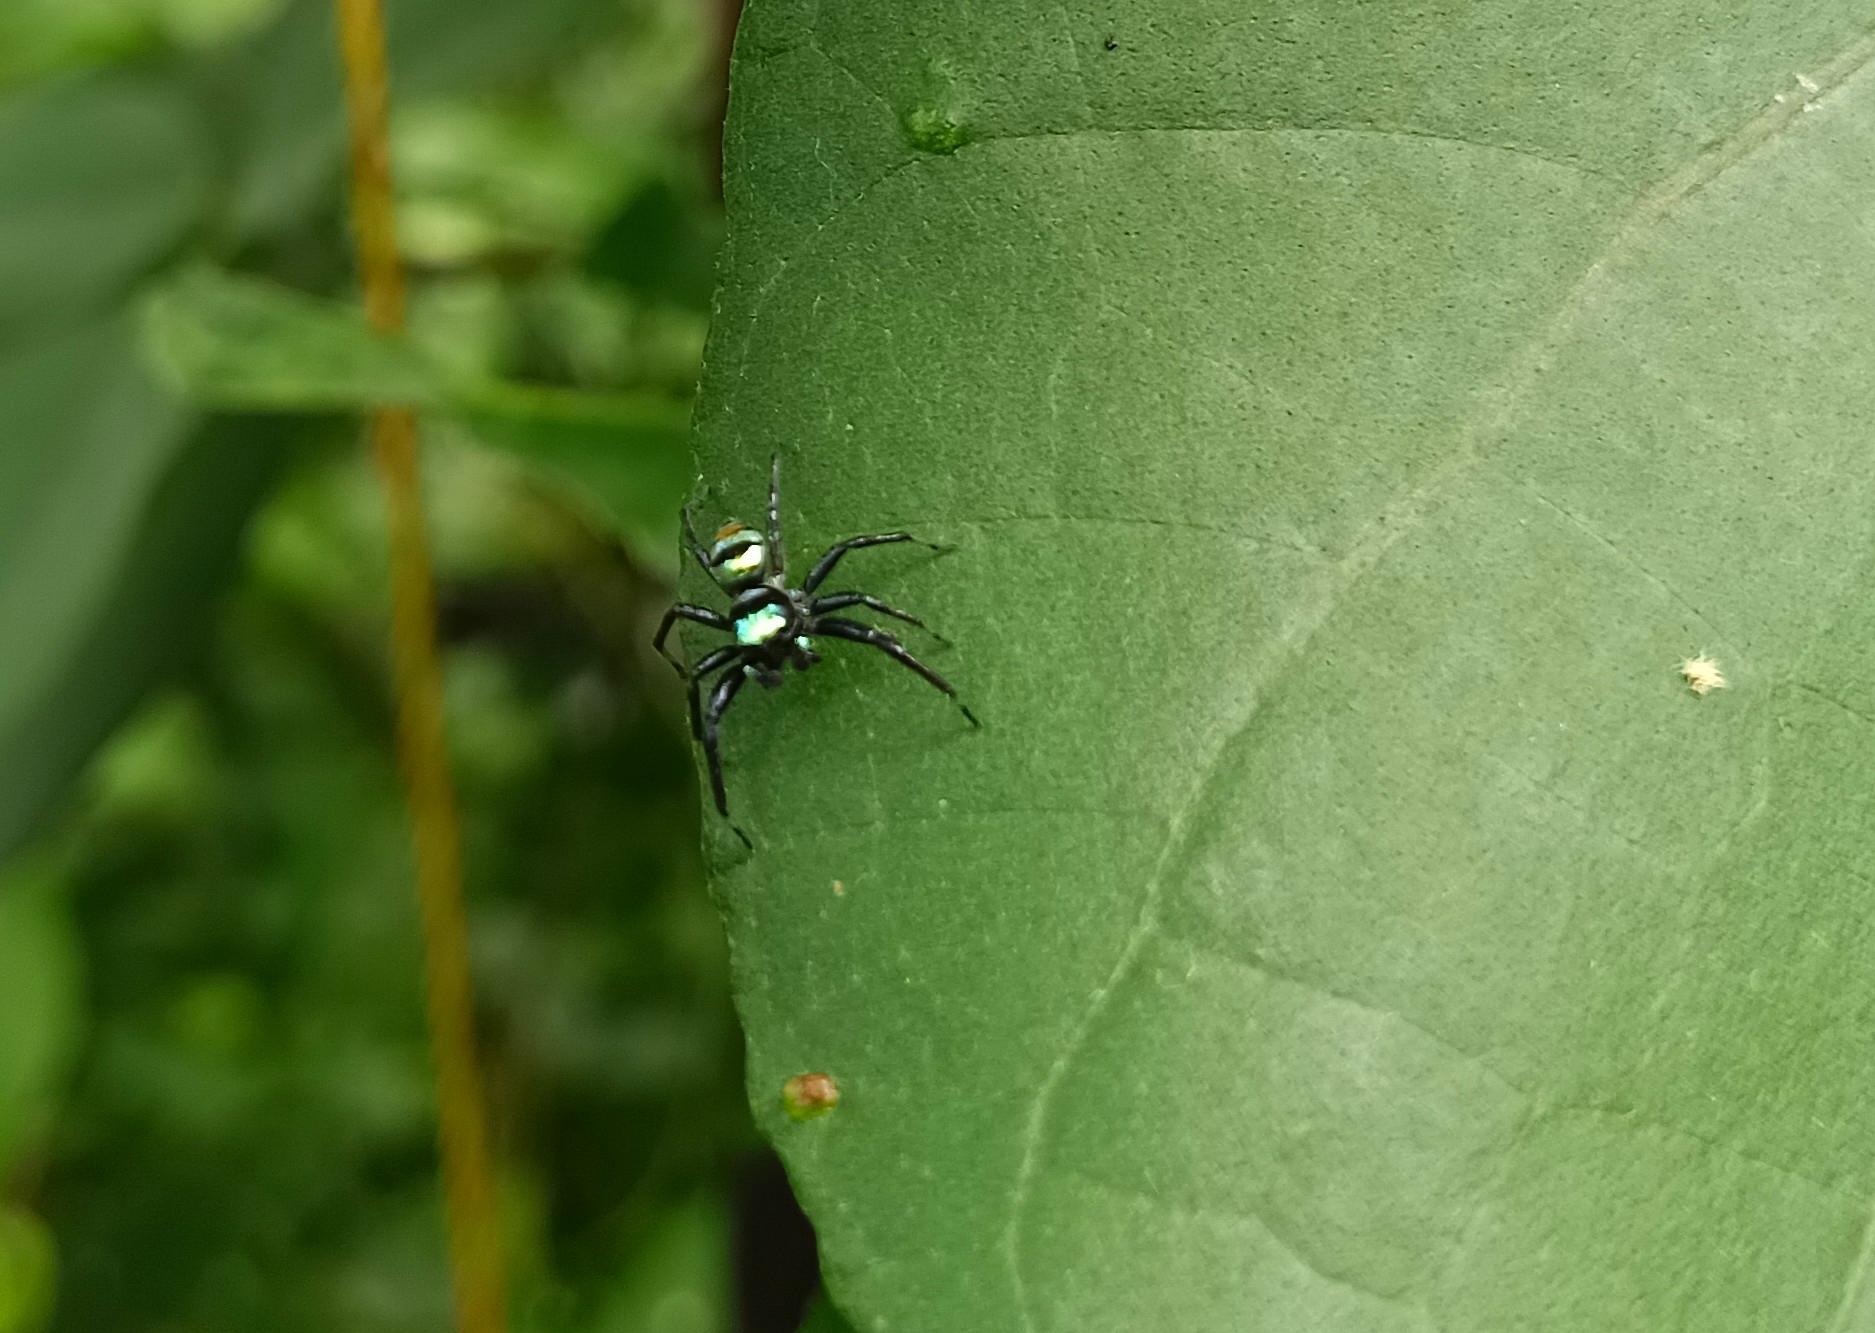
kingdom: Animalia
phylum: Arthropoda
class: Arachnida
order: Araneae
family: Salticidae
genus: Phintella
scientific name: Phintella vittata
